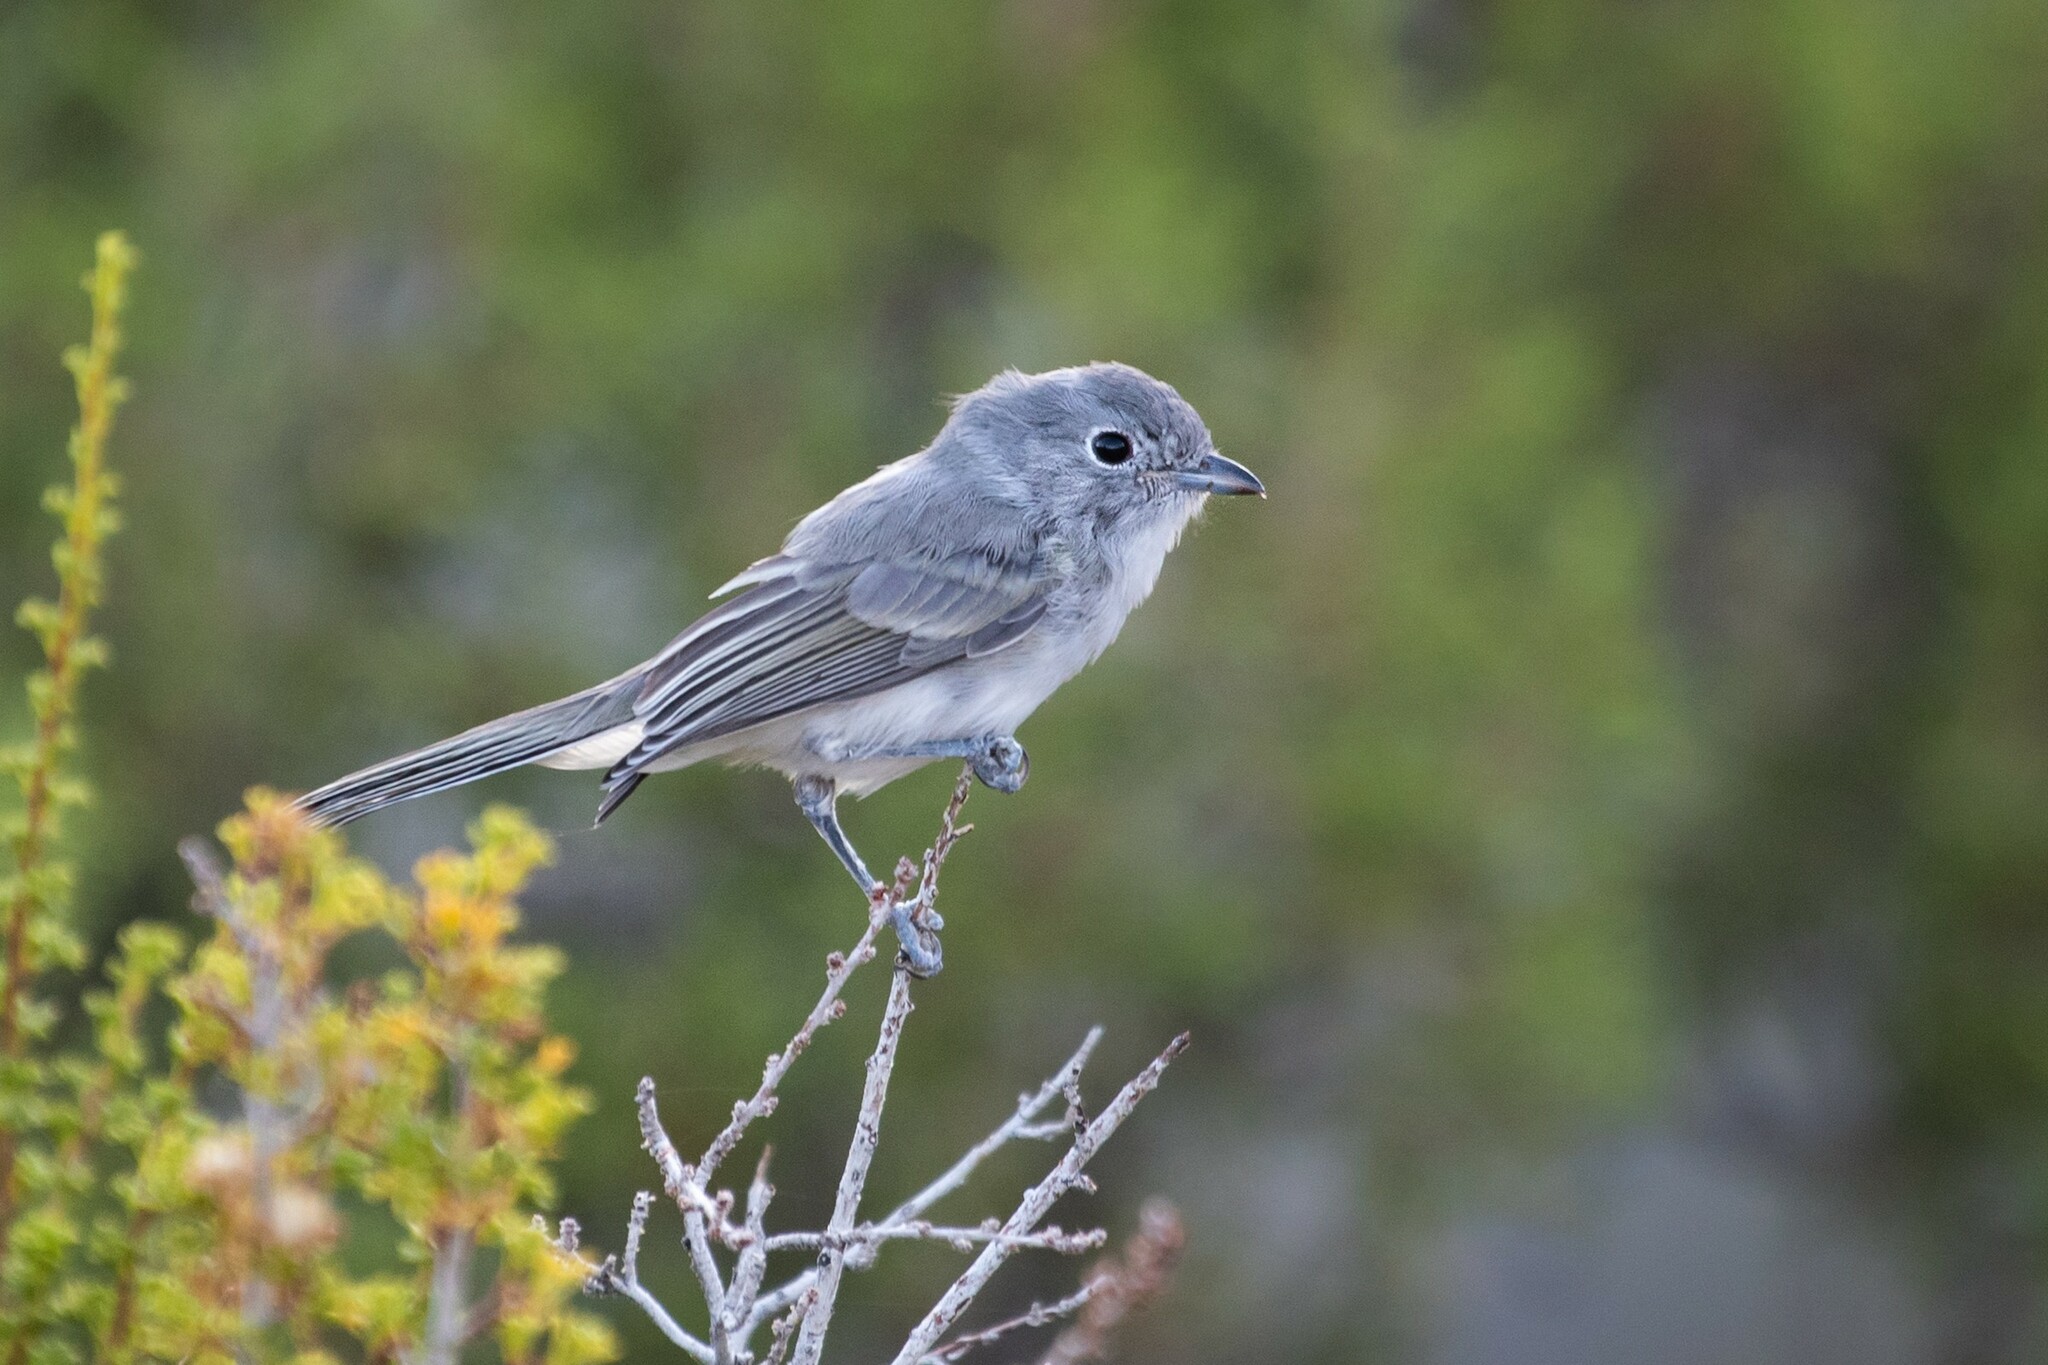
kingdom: Animalia
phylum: Chordata
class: Aves
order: Passeriformes
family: Vireonidae
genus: Vireo
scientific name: Vireo vicinior
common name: Gray vireo
